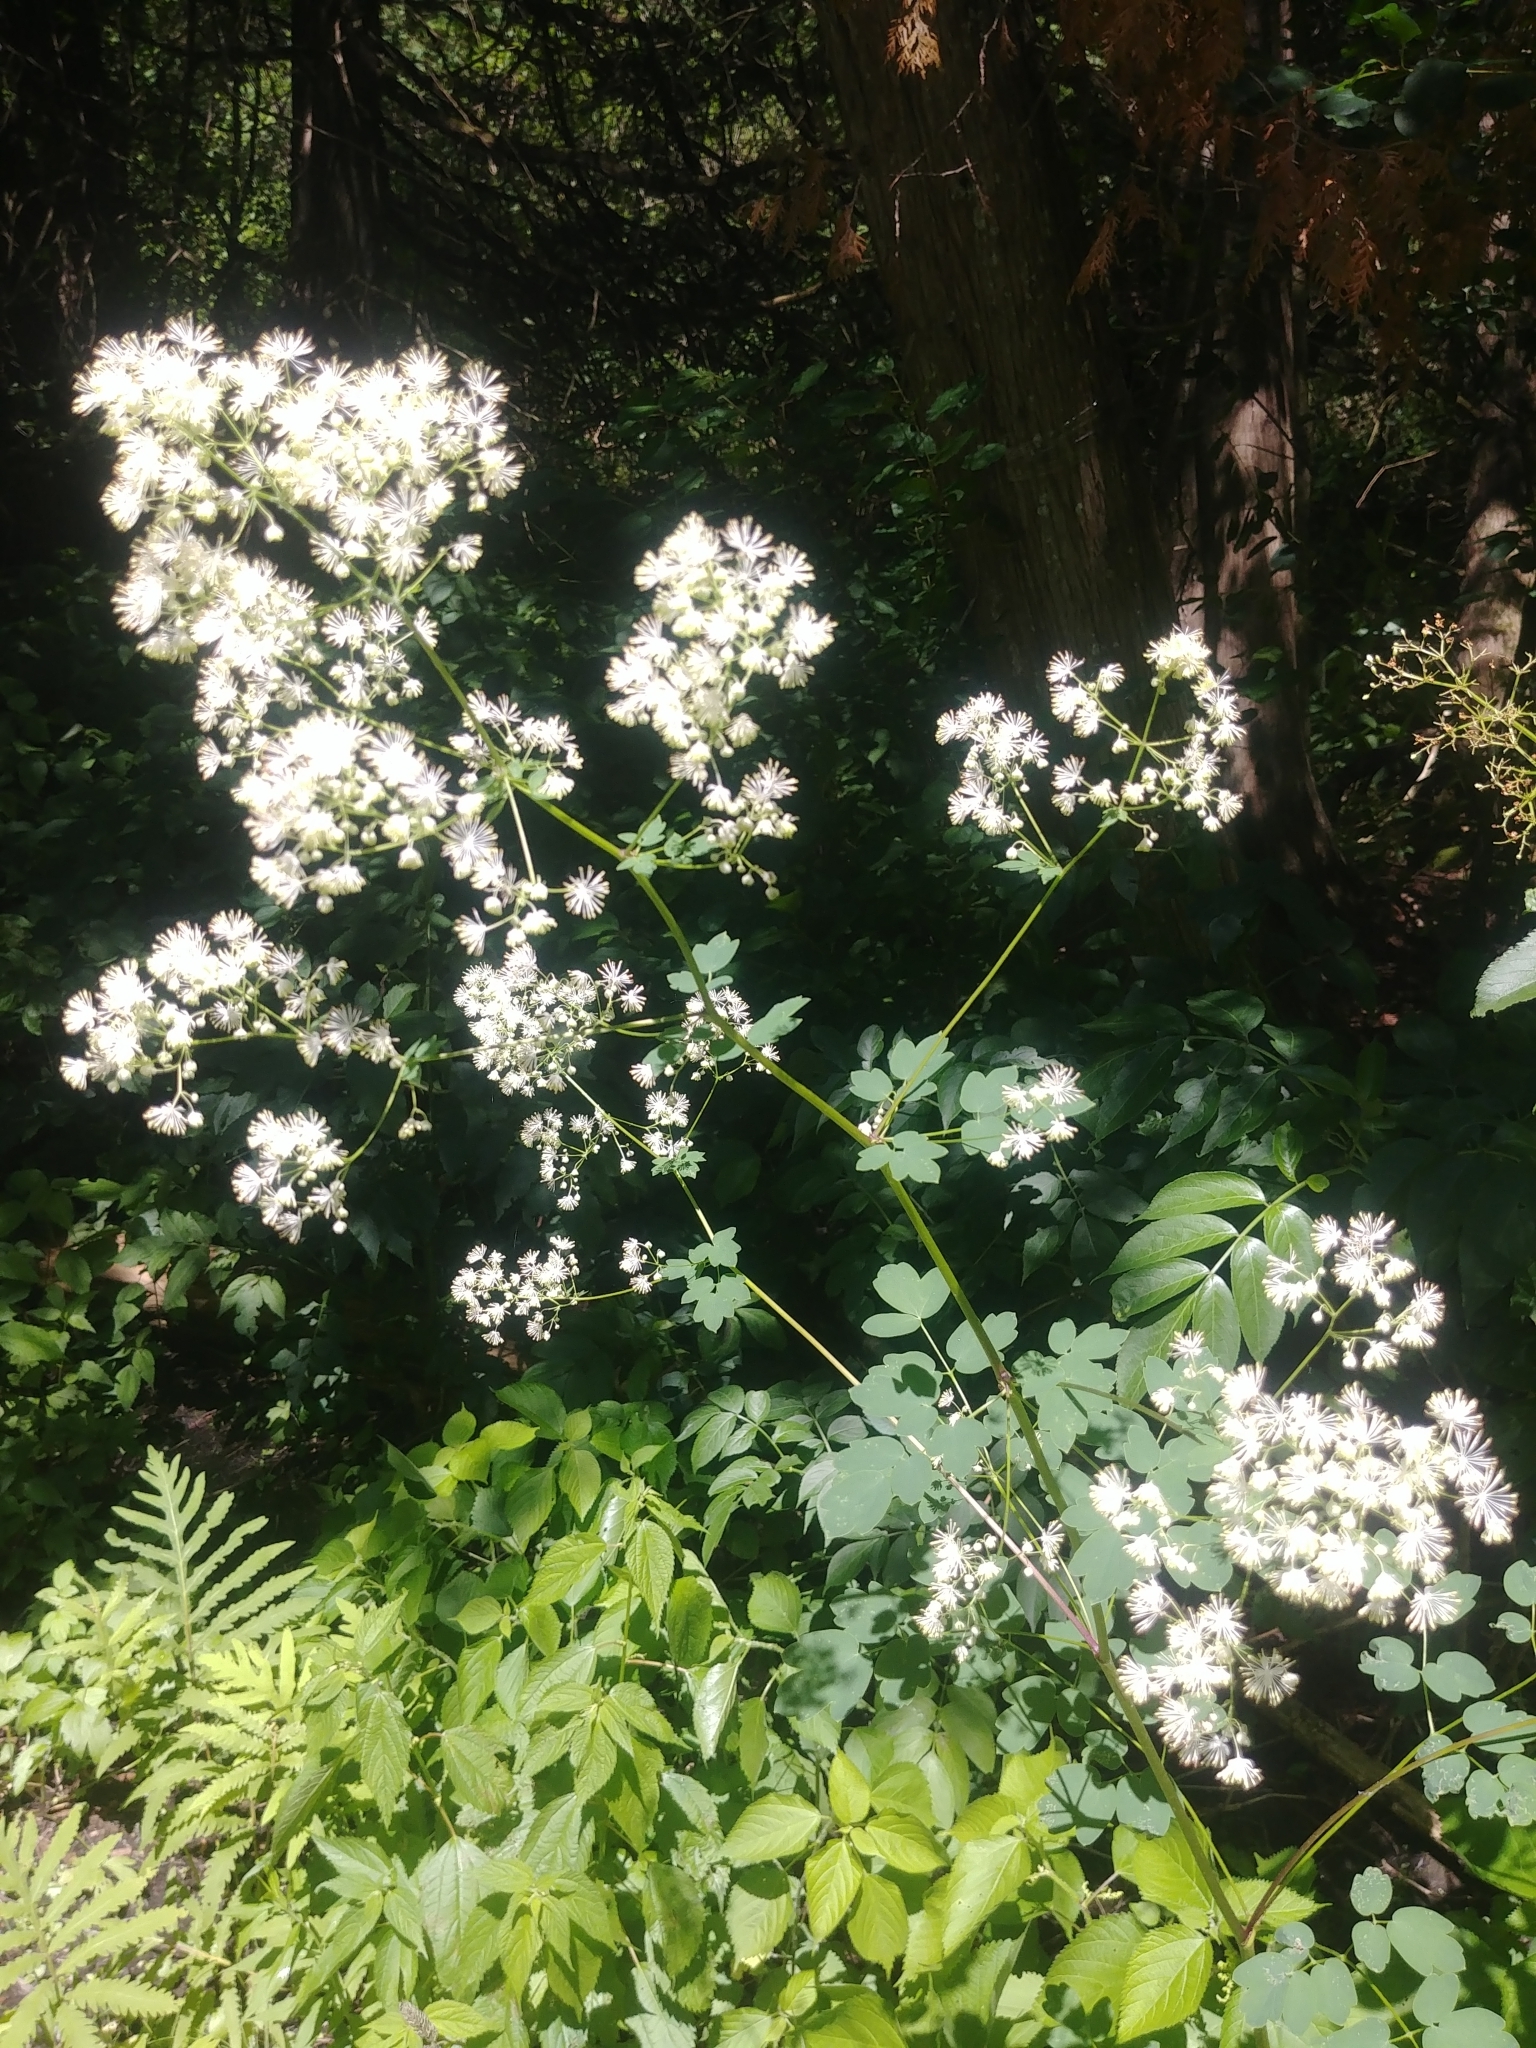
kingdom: Plantae
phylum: Tracheophyta
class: Magnoliopsida
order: Ranunculales
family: Ranunculaceae
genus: Thalictrum
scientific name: Thalictrum pubescens
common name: King-of-the-meadow
